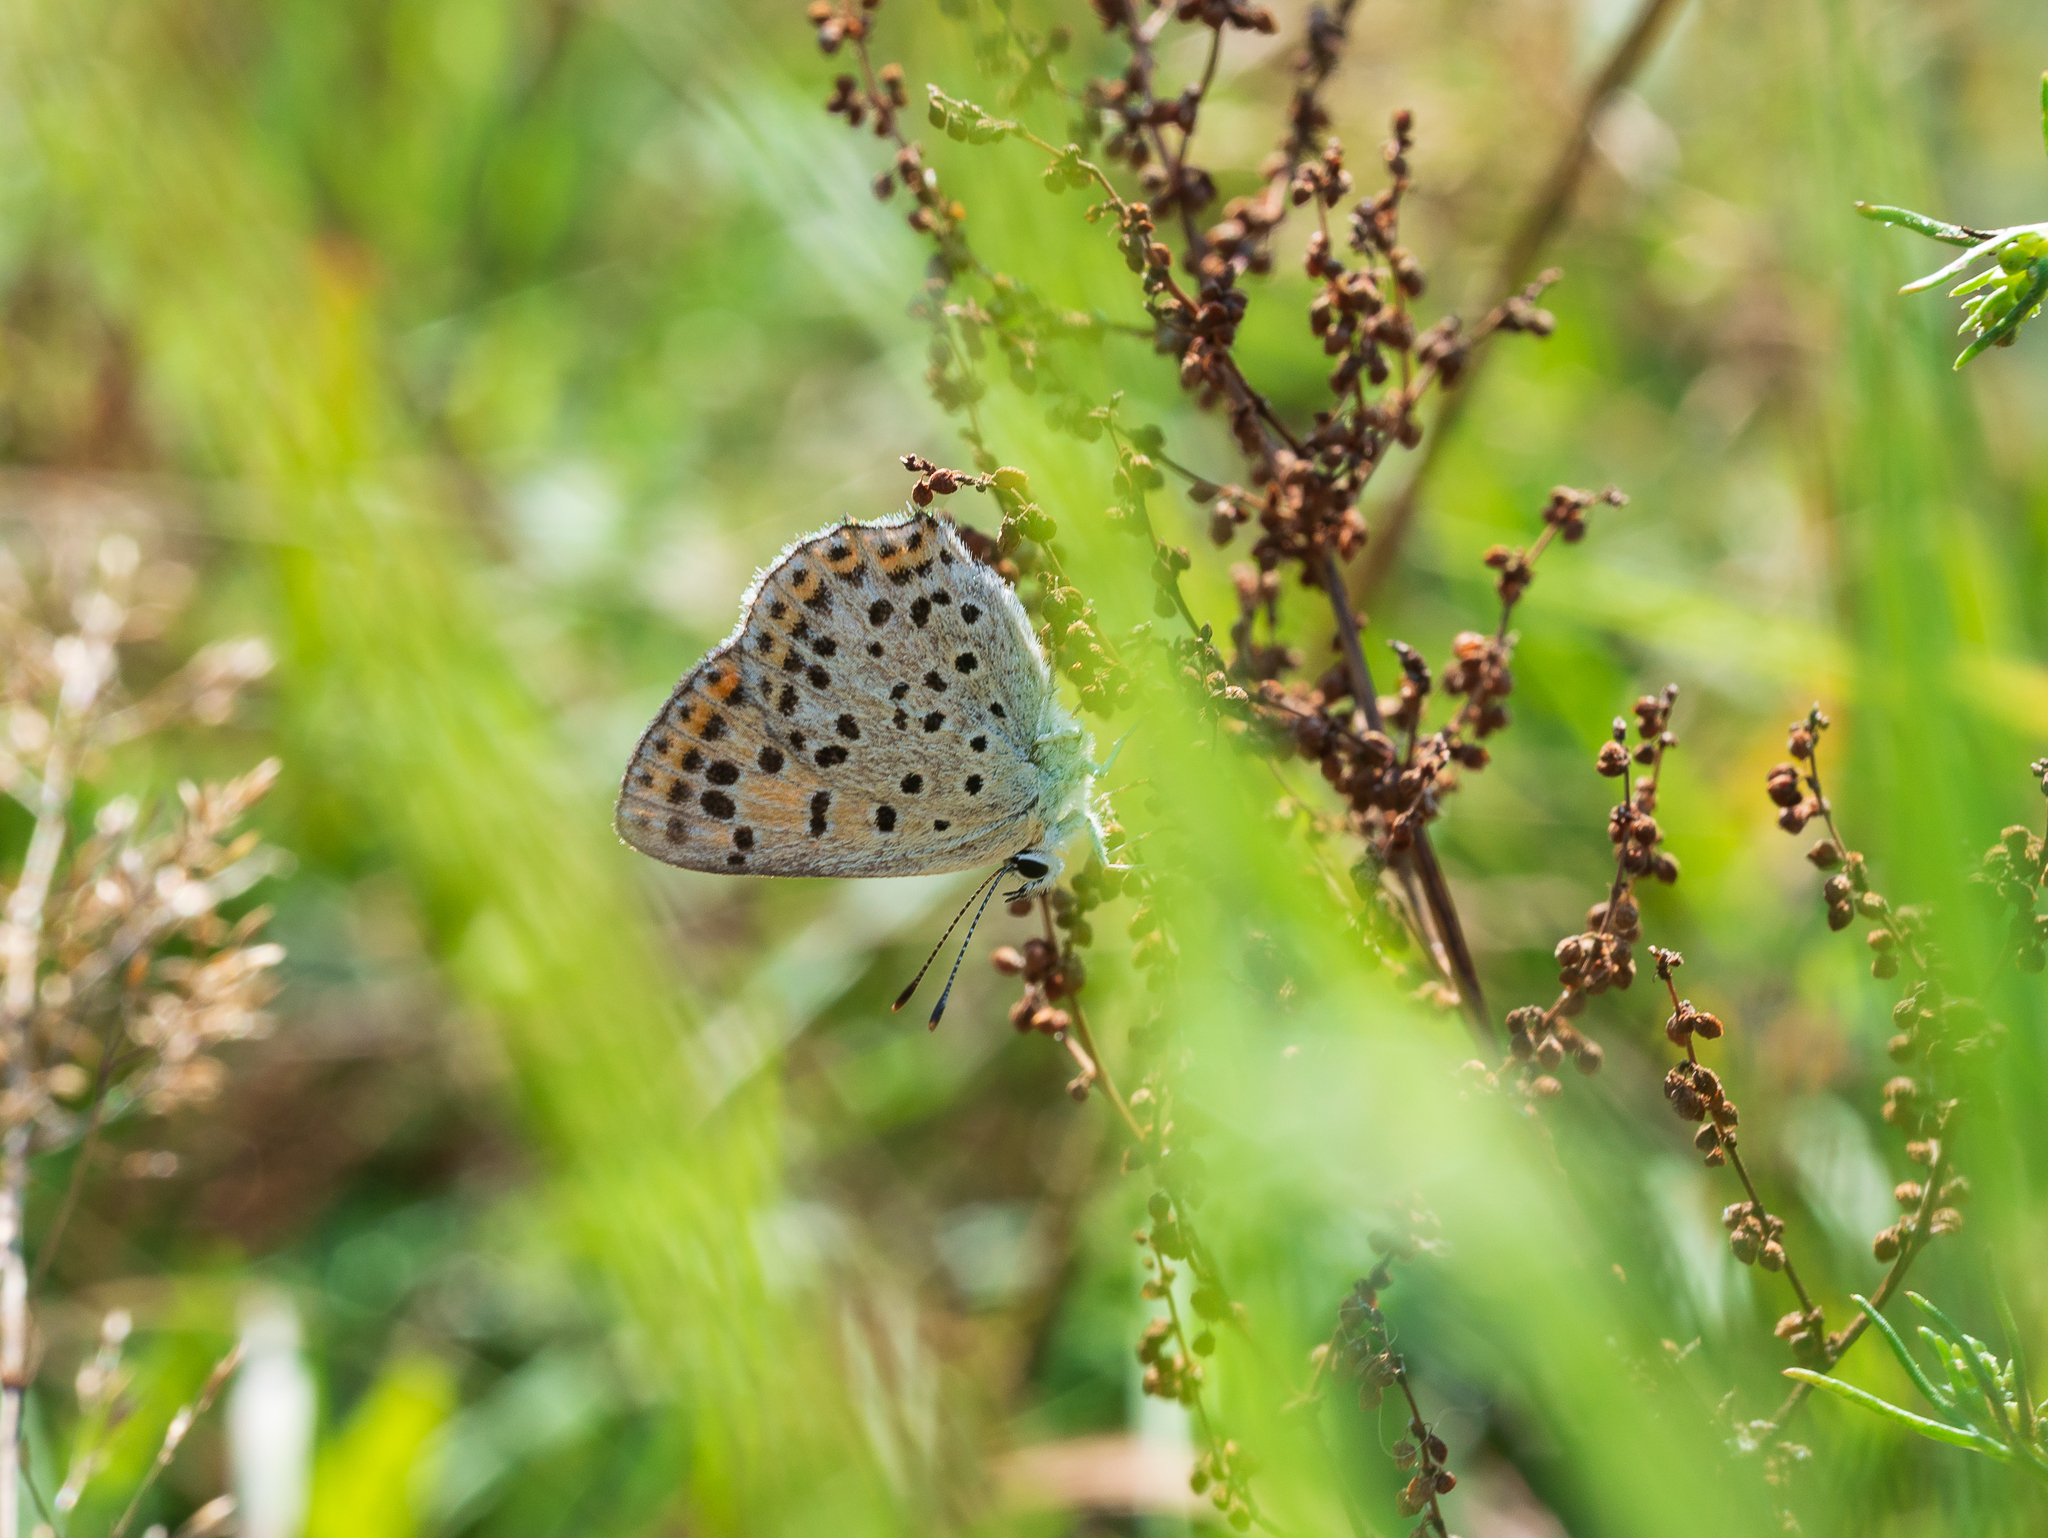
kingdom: Animalia
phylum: Arthropoda
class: Insecta
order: Lepidoptera
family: Lycaenidae
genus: Loweia
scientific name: Loweia tityrus
